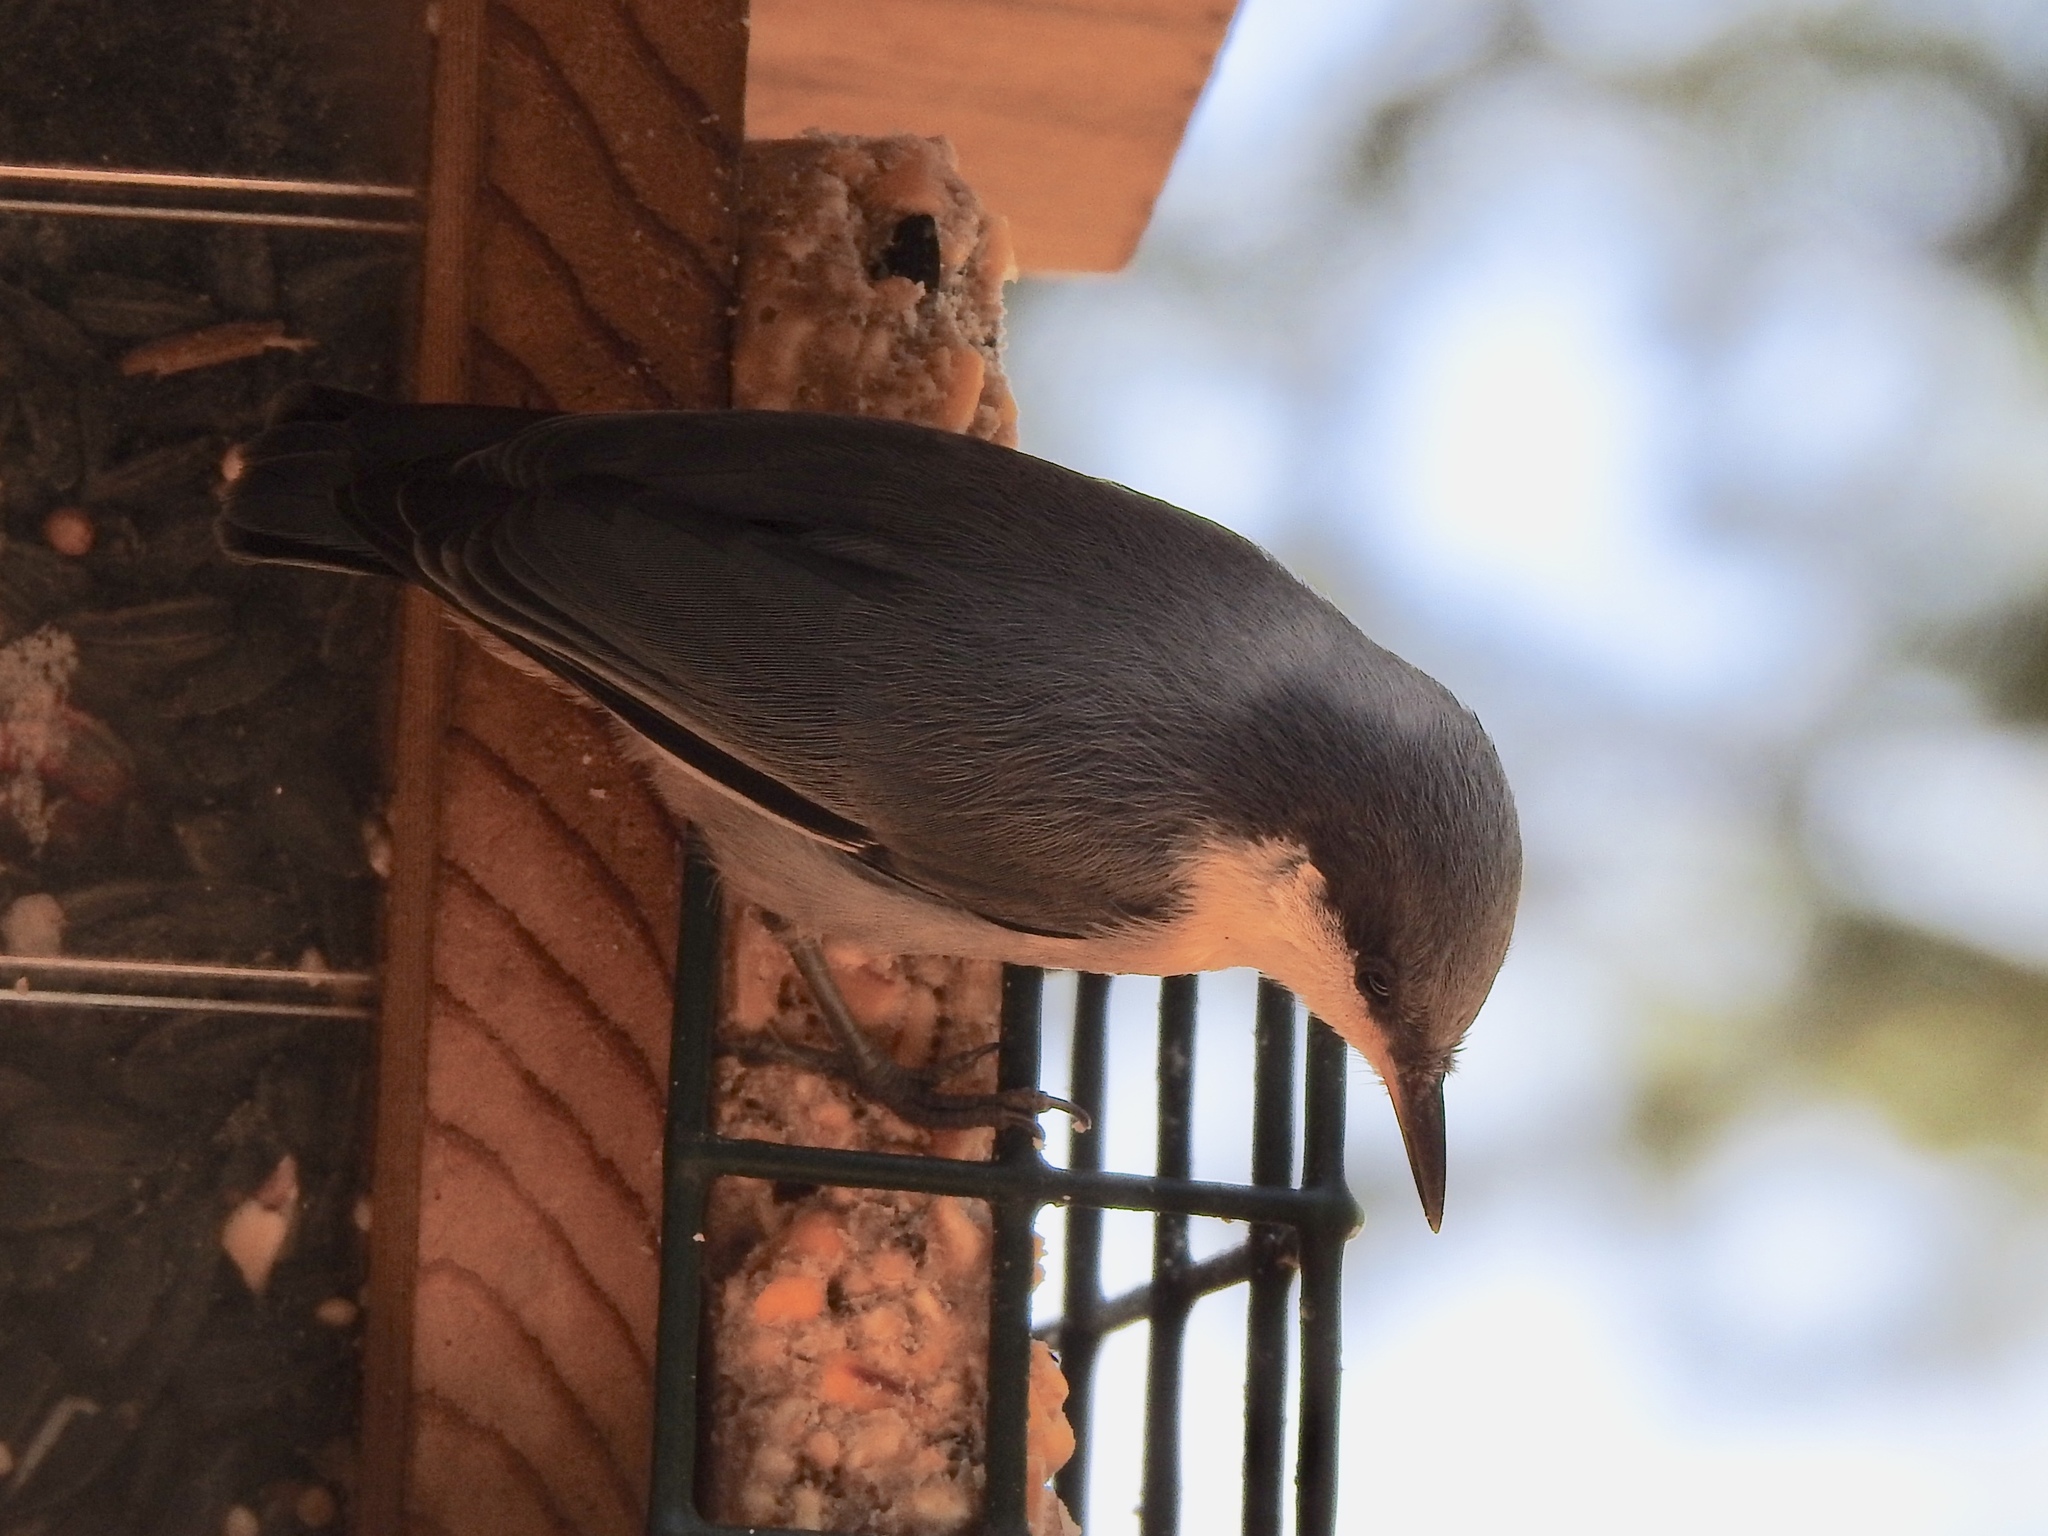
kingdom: Animalia
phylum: Chordata
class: Aves
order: Passeriformes
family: Sittidae
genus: Sitta
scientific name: Sitta pygmaea
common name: Pygmy nuthatch
